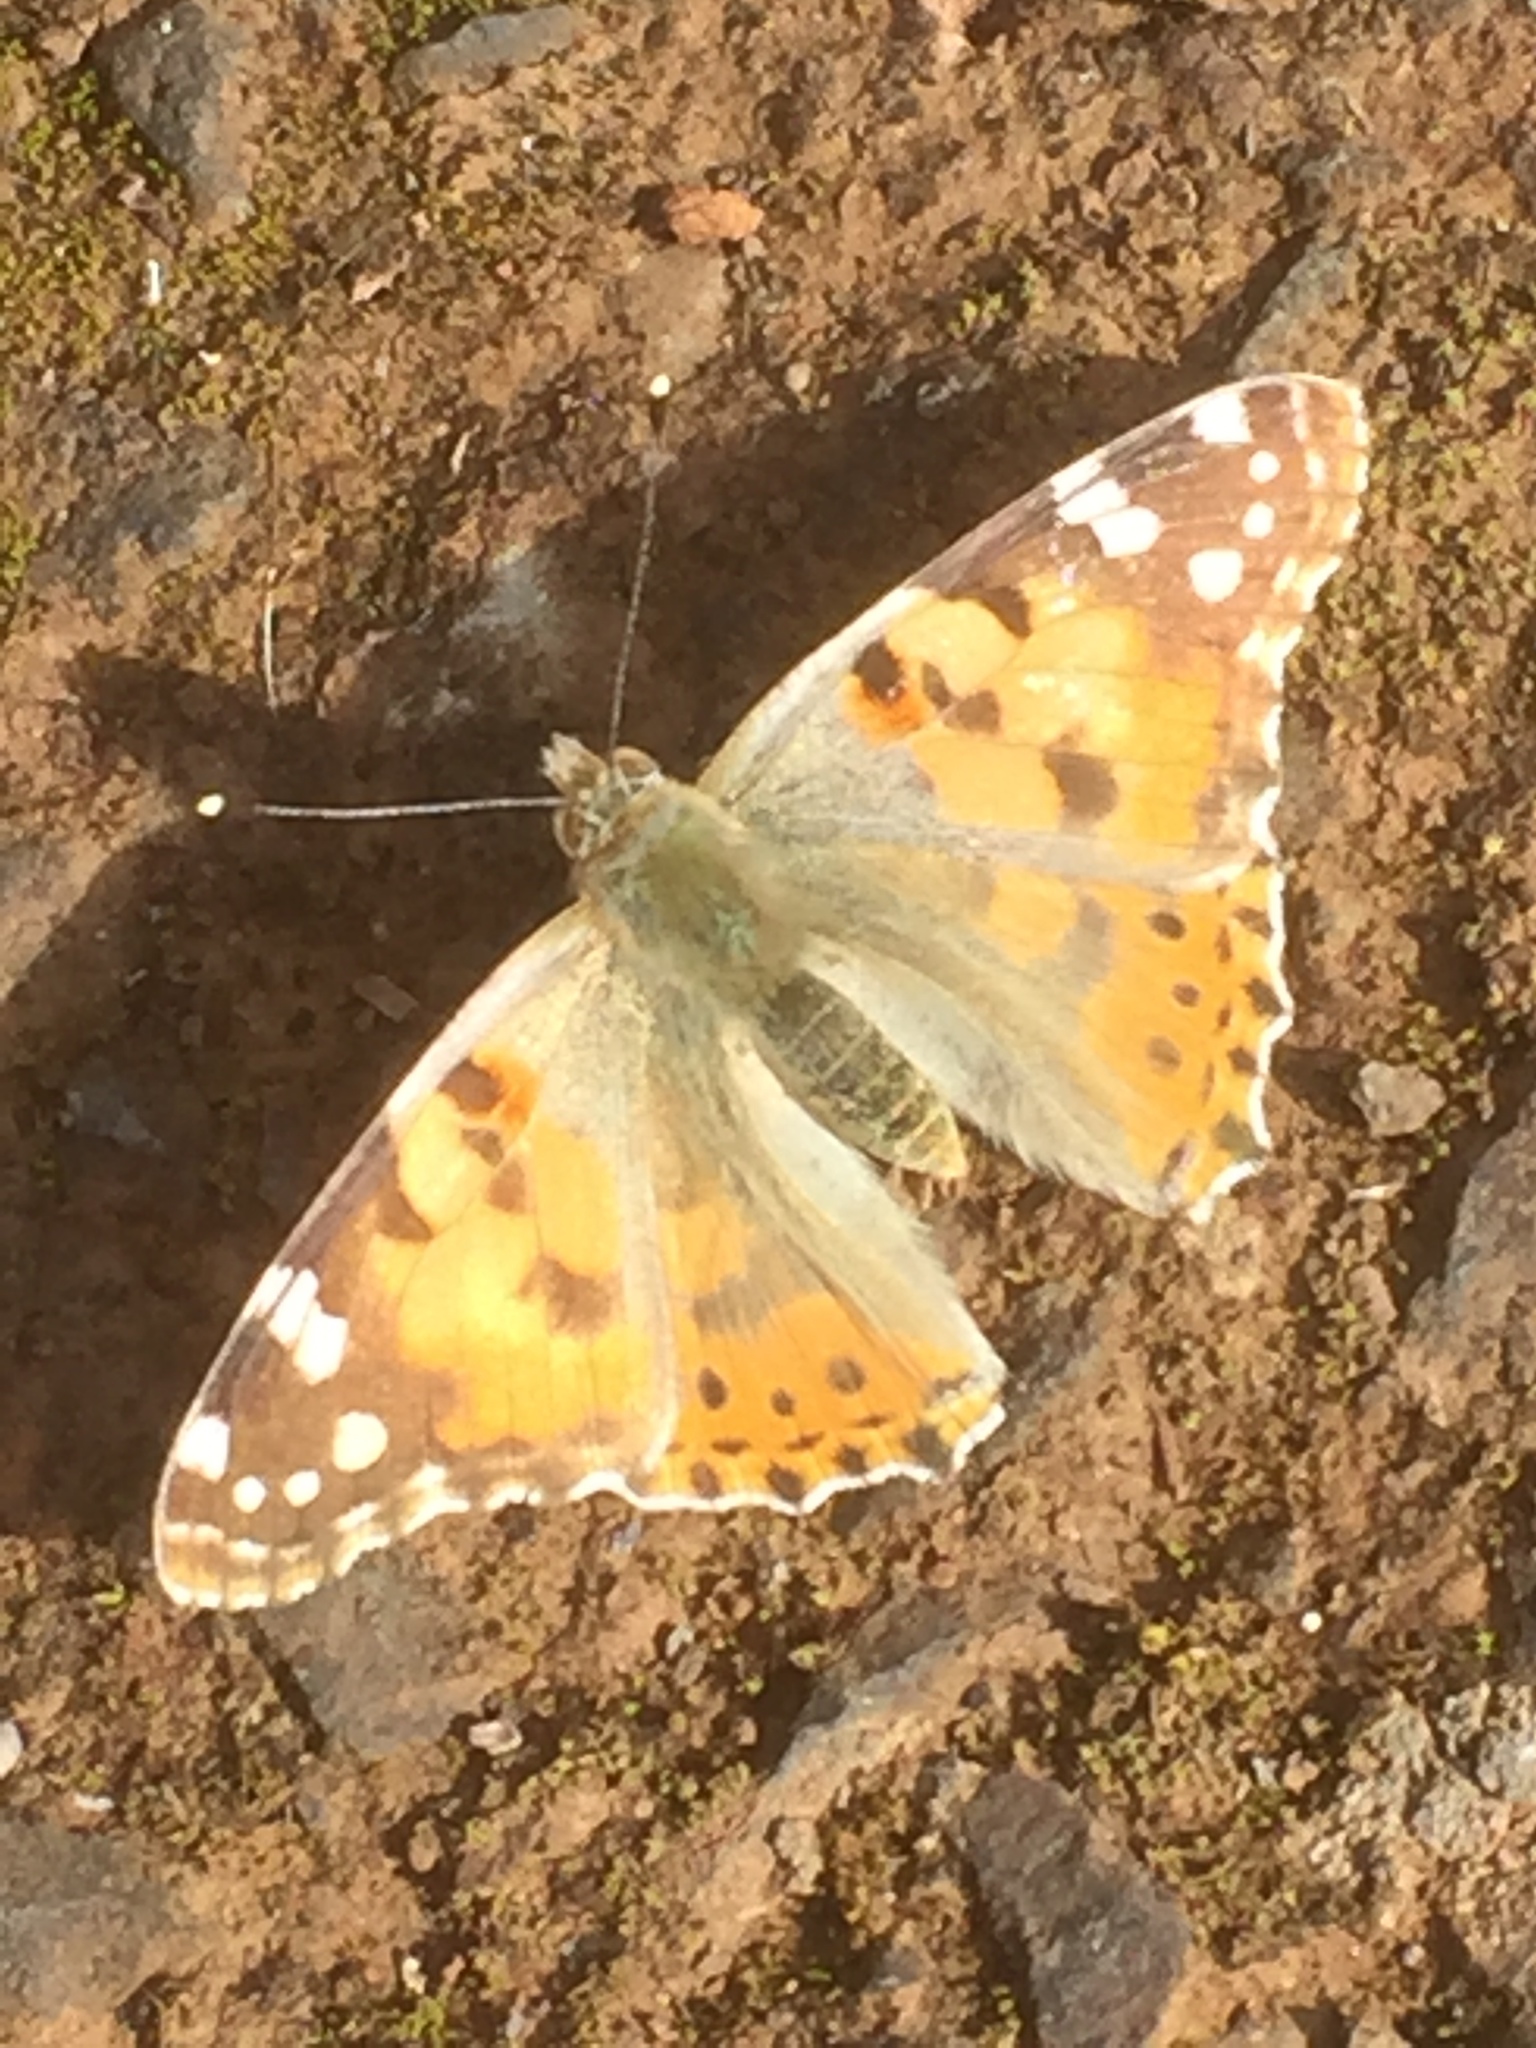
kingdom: Animalia
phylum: Arthropoda
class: Insecta
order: Lepidoptera
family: Nymphalidae
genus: Vanessa
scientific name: Vanessa cardui
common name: Painted lady
